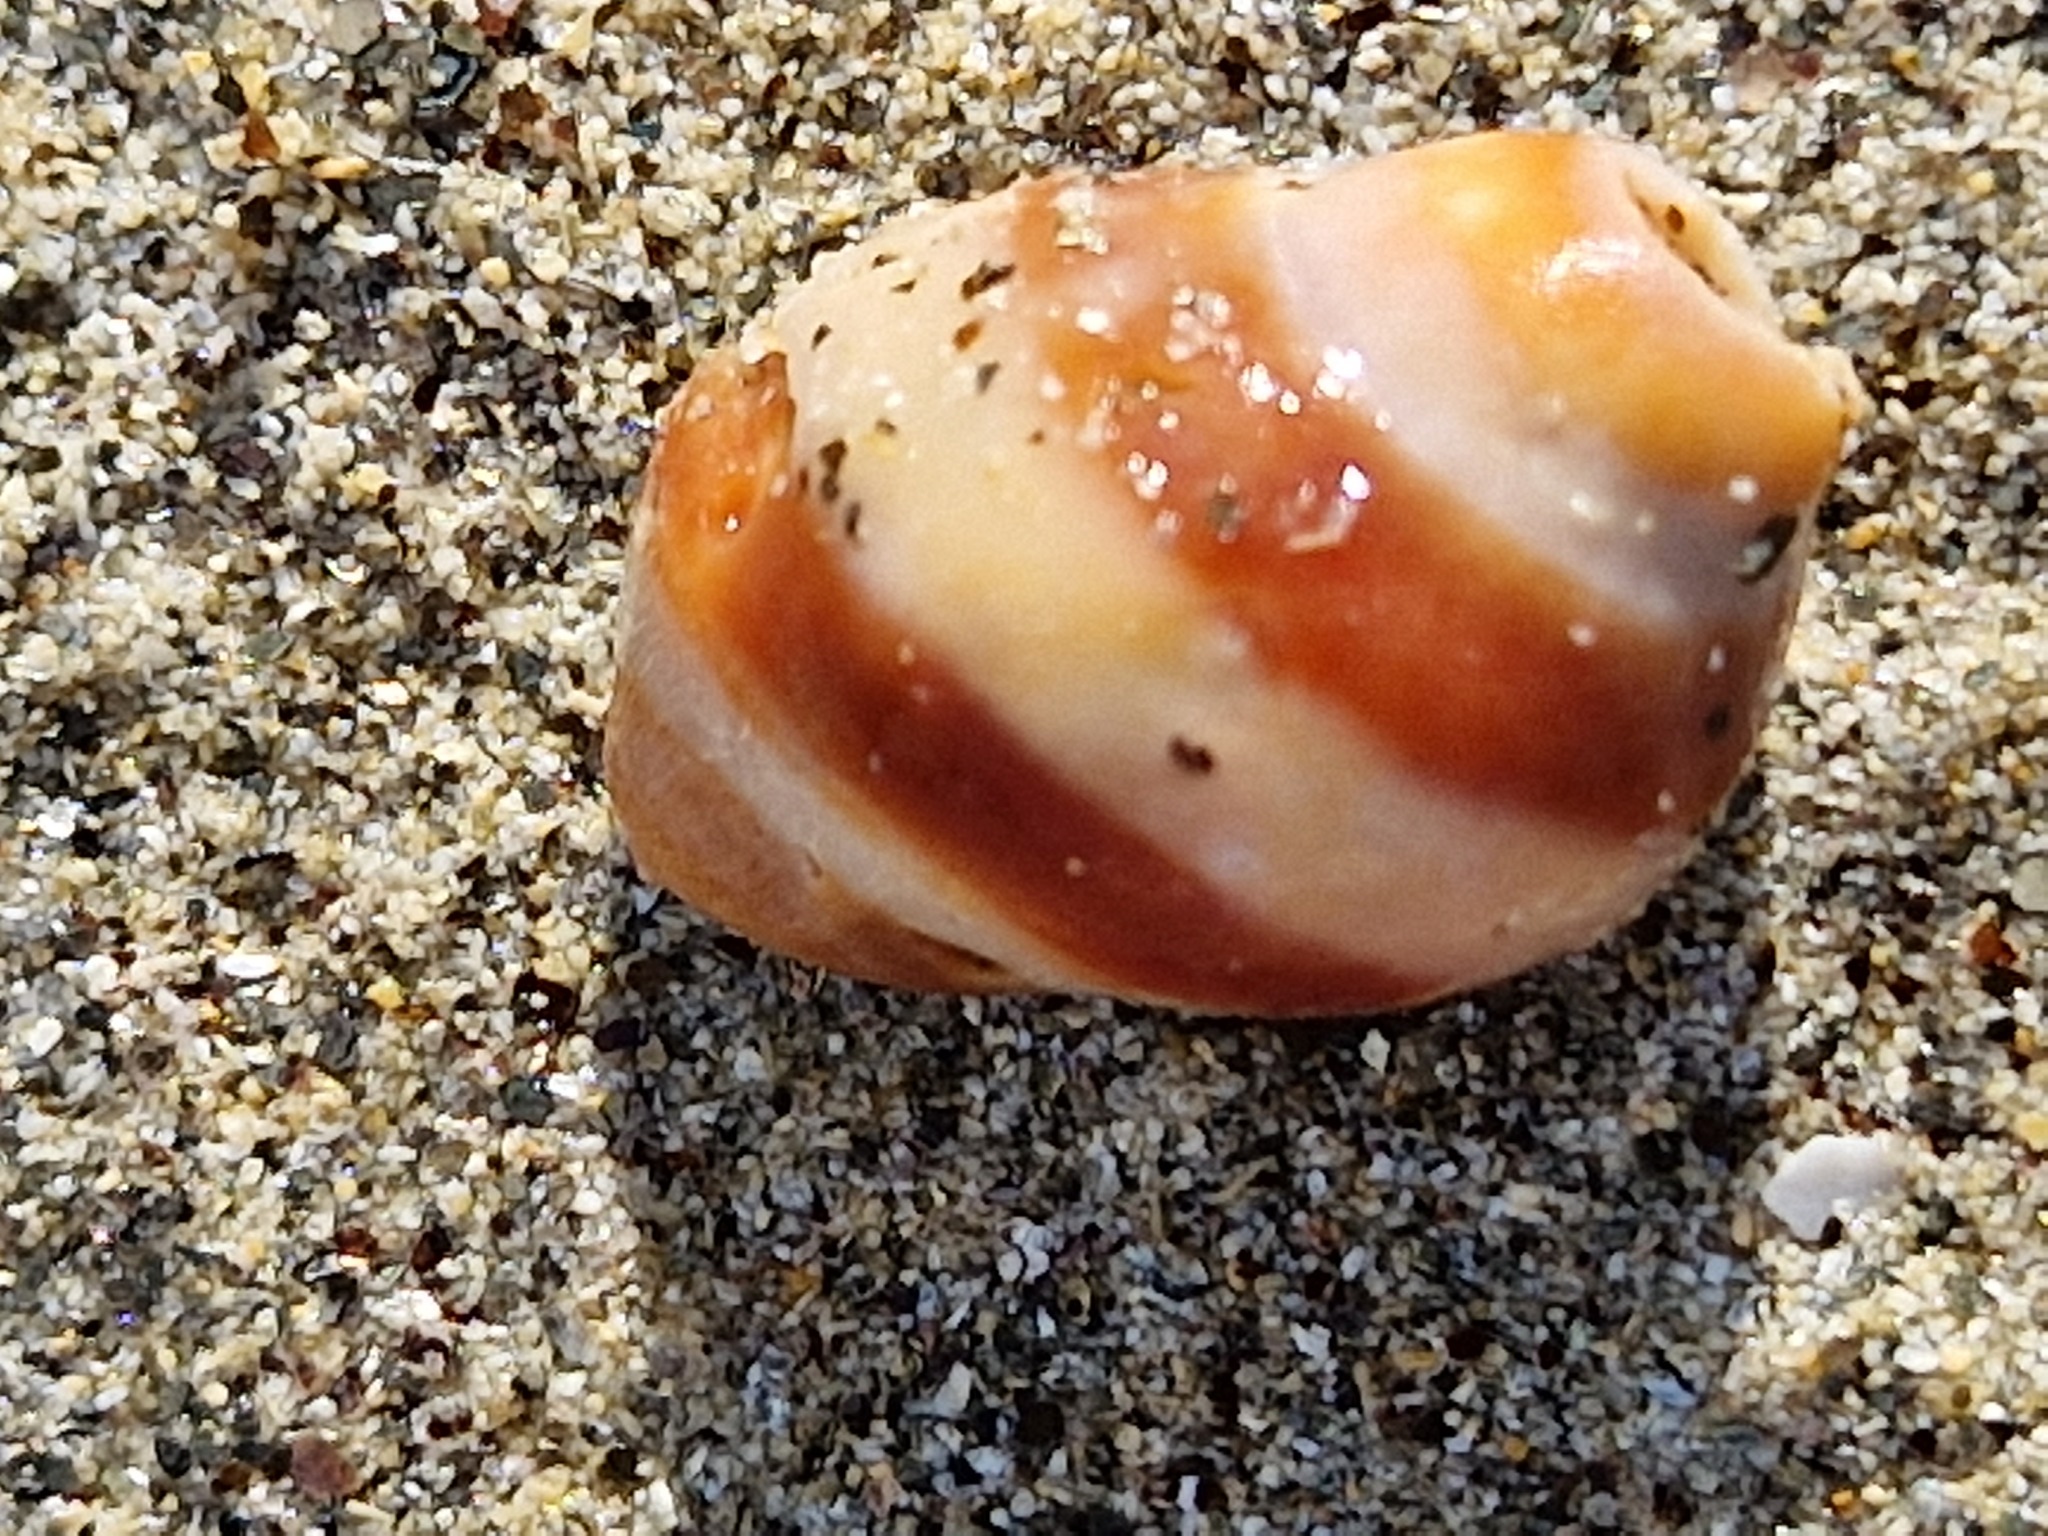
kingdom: Animalia
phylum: Mollusca
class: Gastropoda
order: Neogastropoda
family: Muricidae
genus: Nucella
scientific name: Nucella lapillus
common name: Dog whelk
